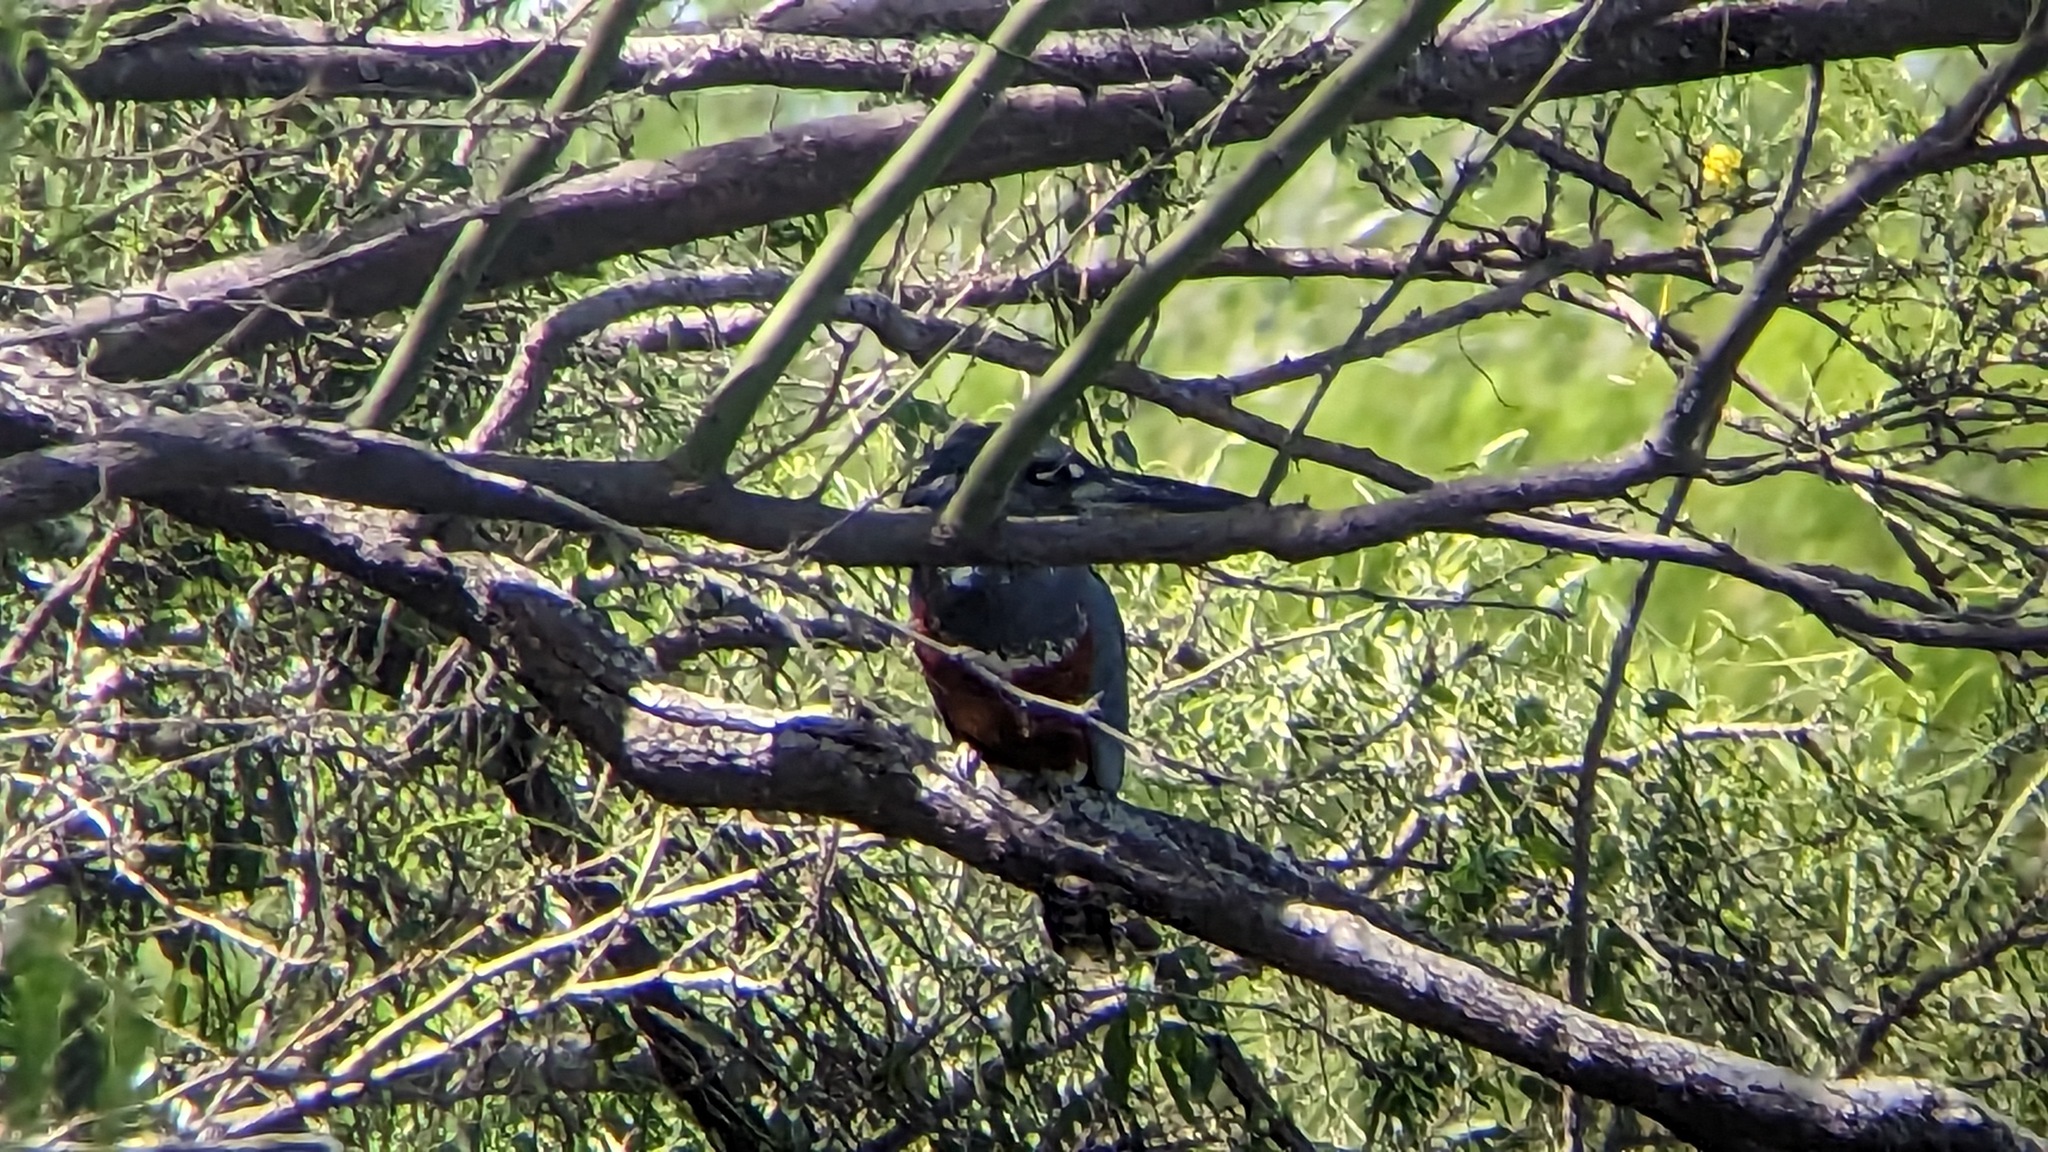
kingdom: Animalia
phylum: Chordata
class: Aves
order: Coraciiformes
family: Alcedinidae
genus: Megaceryle
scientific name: Megaceryle torquata
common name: Ringed kingfisher
